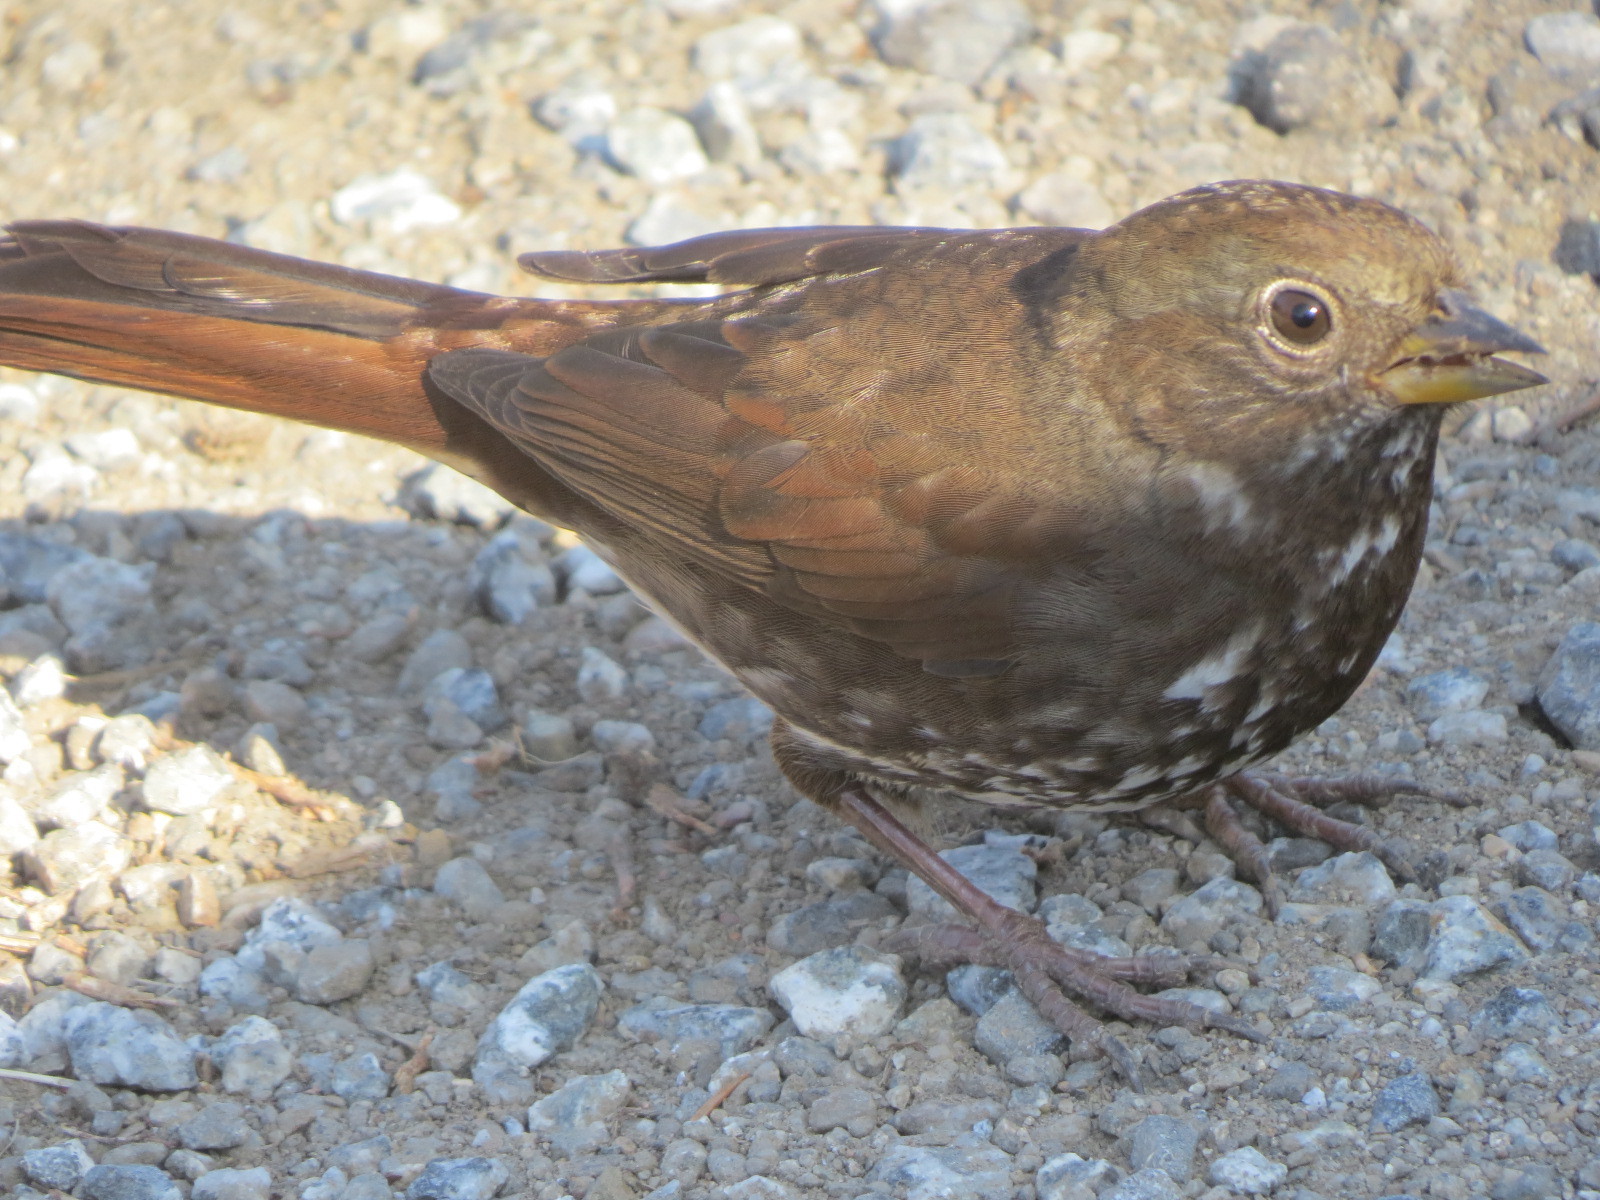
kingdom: Animalia
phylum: Chordata
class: Aves
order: Passeriformes
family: Passerellidae
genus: Passerella
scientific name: Passerella iliaca
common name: Fox sparrow
